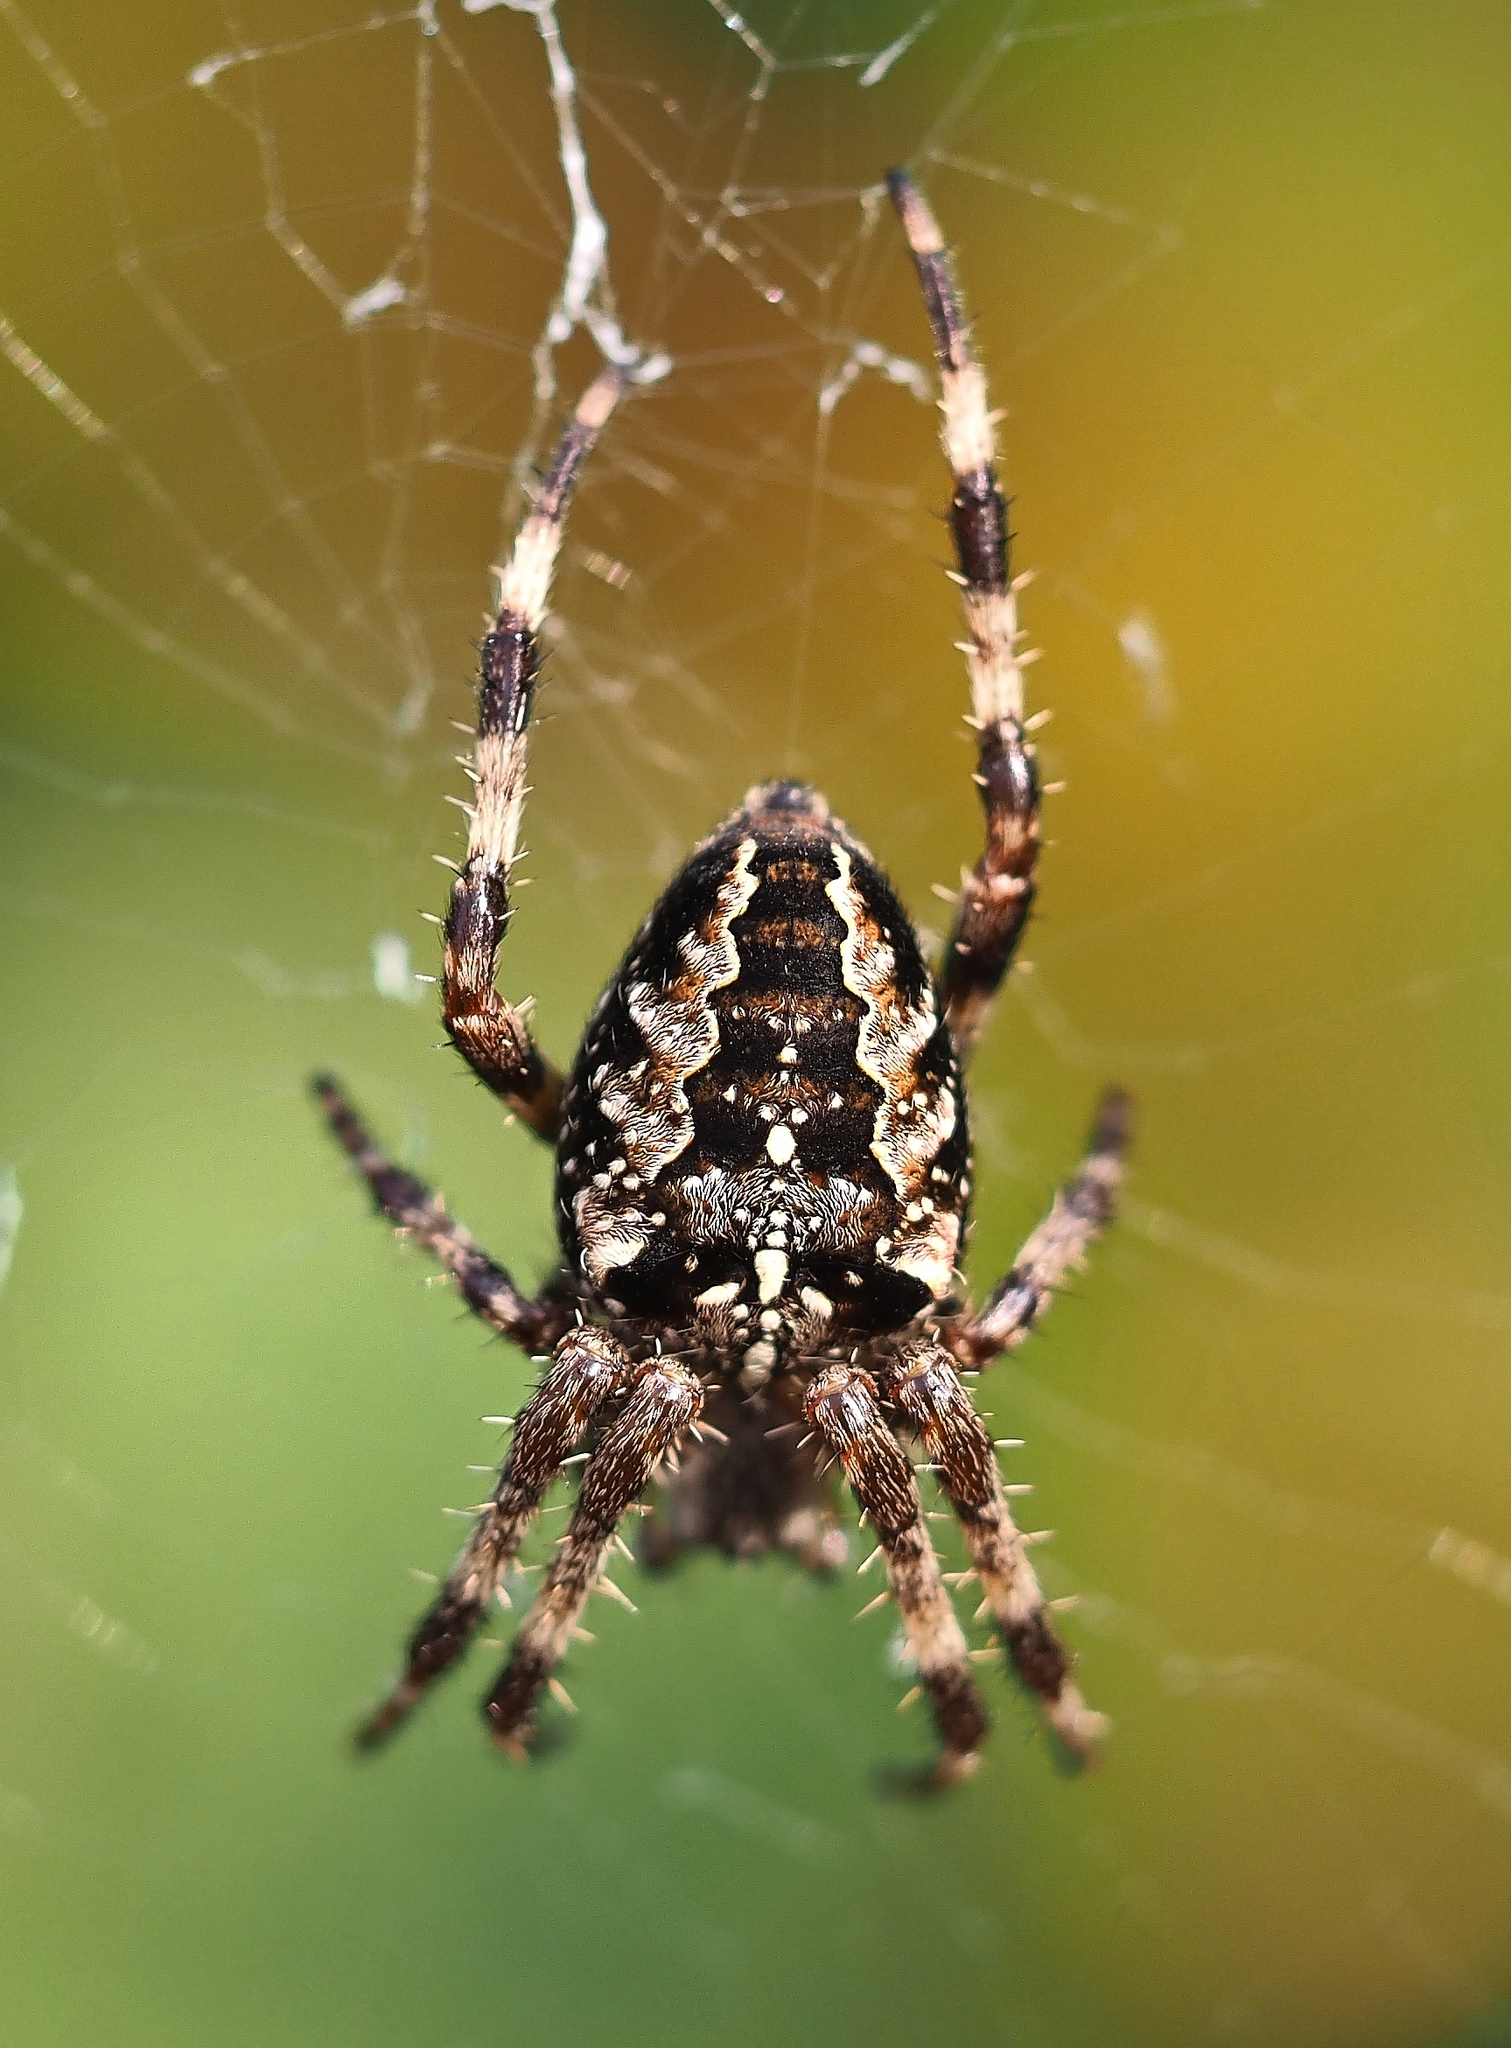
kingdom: Animalia
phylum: Arthropoda
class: Arachnida
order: Araneae
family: Araneidae
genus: Araneus
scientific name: Araneus diadematus
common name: Cross orbweaver
